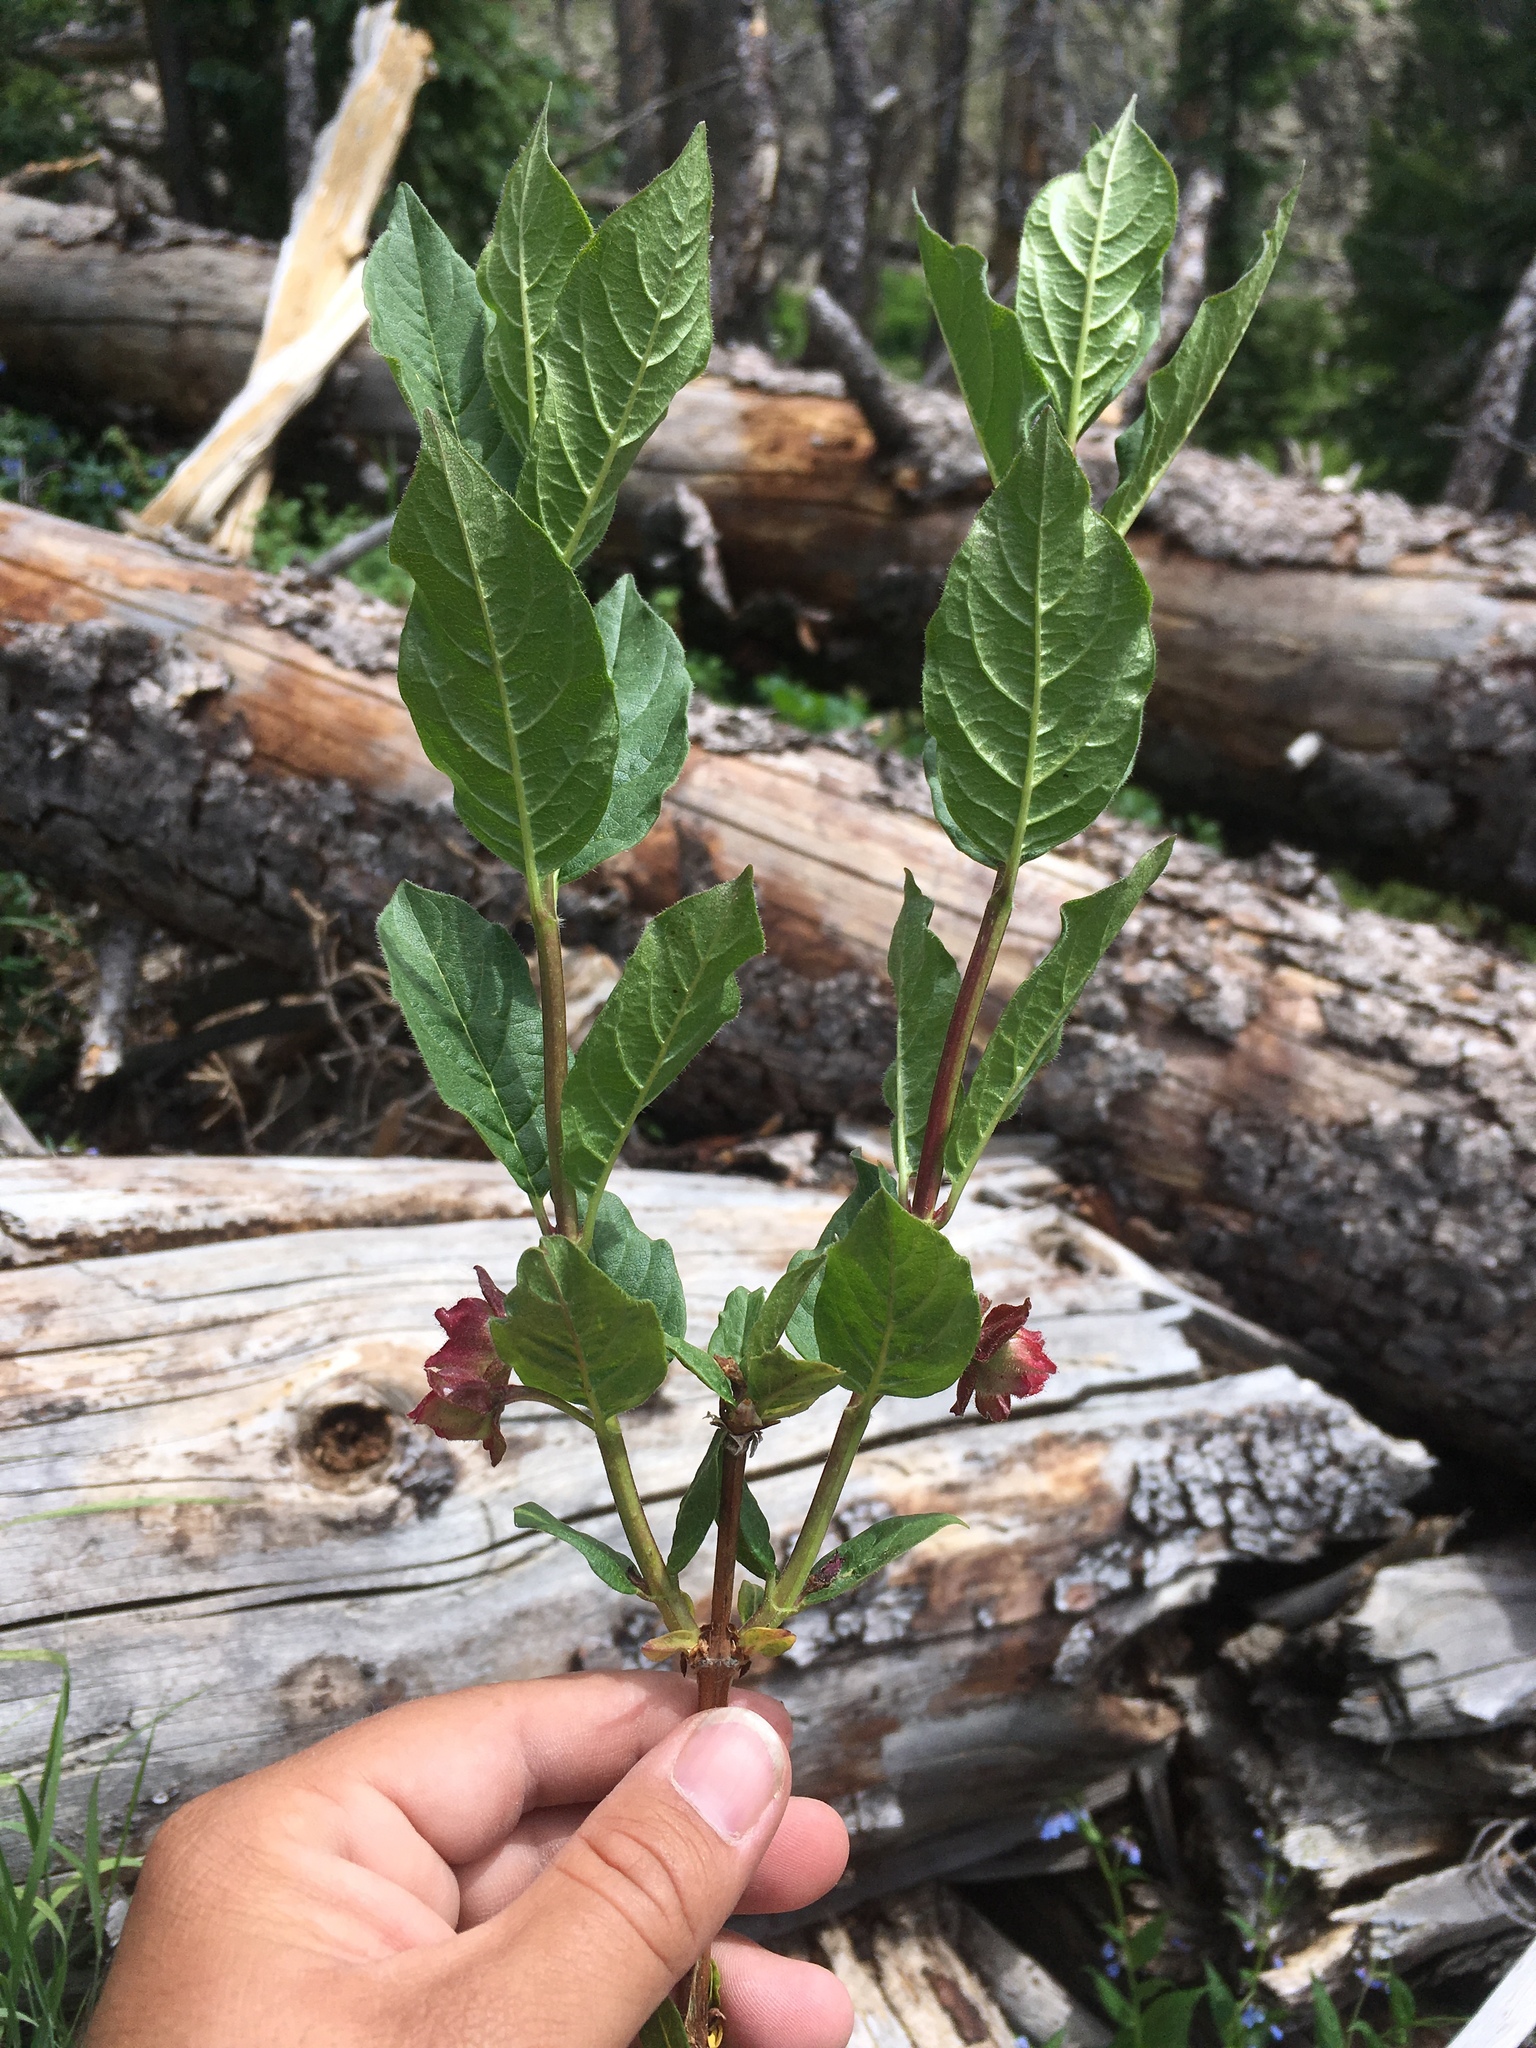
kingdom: Plantae
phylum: Tracheophyta
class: Magnoliopsida
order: Dipsacales
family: Caprifoliaceae
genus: Lonicera
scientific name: Lonicera involucrata
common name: Californian honeysuckle
